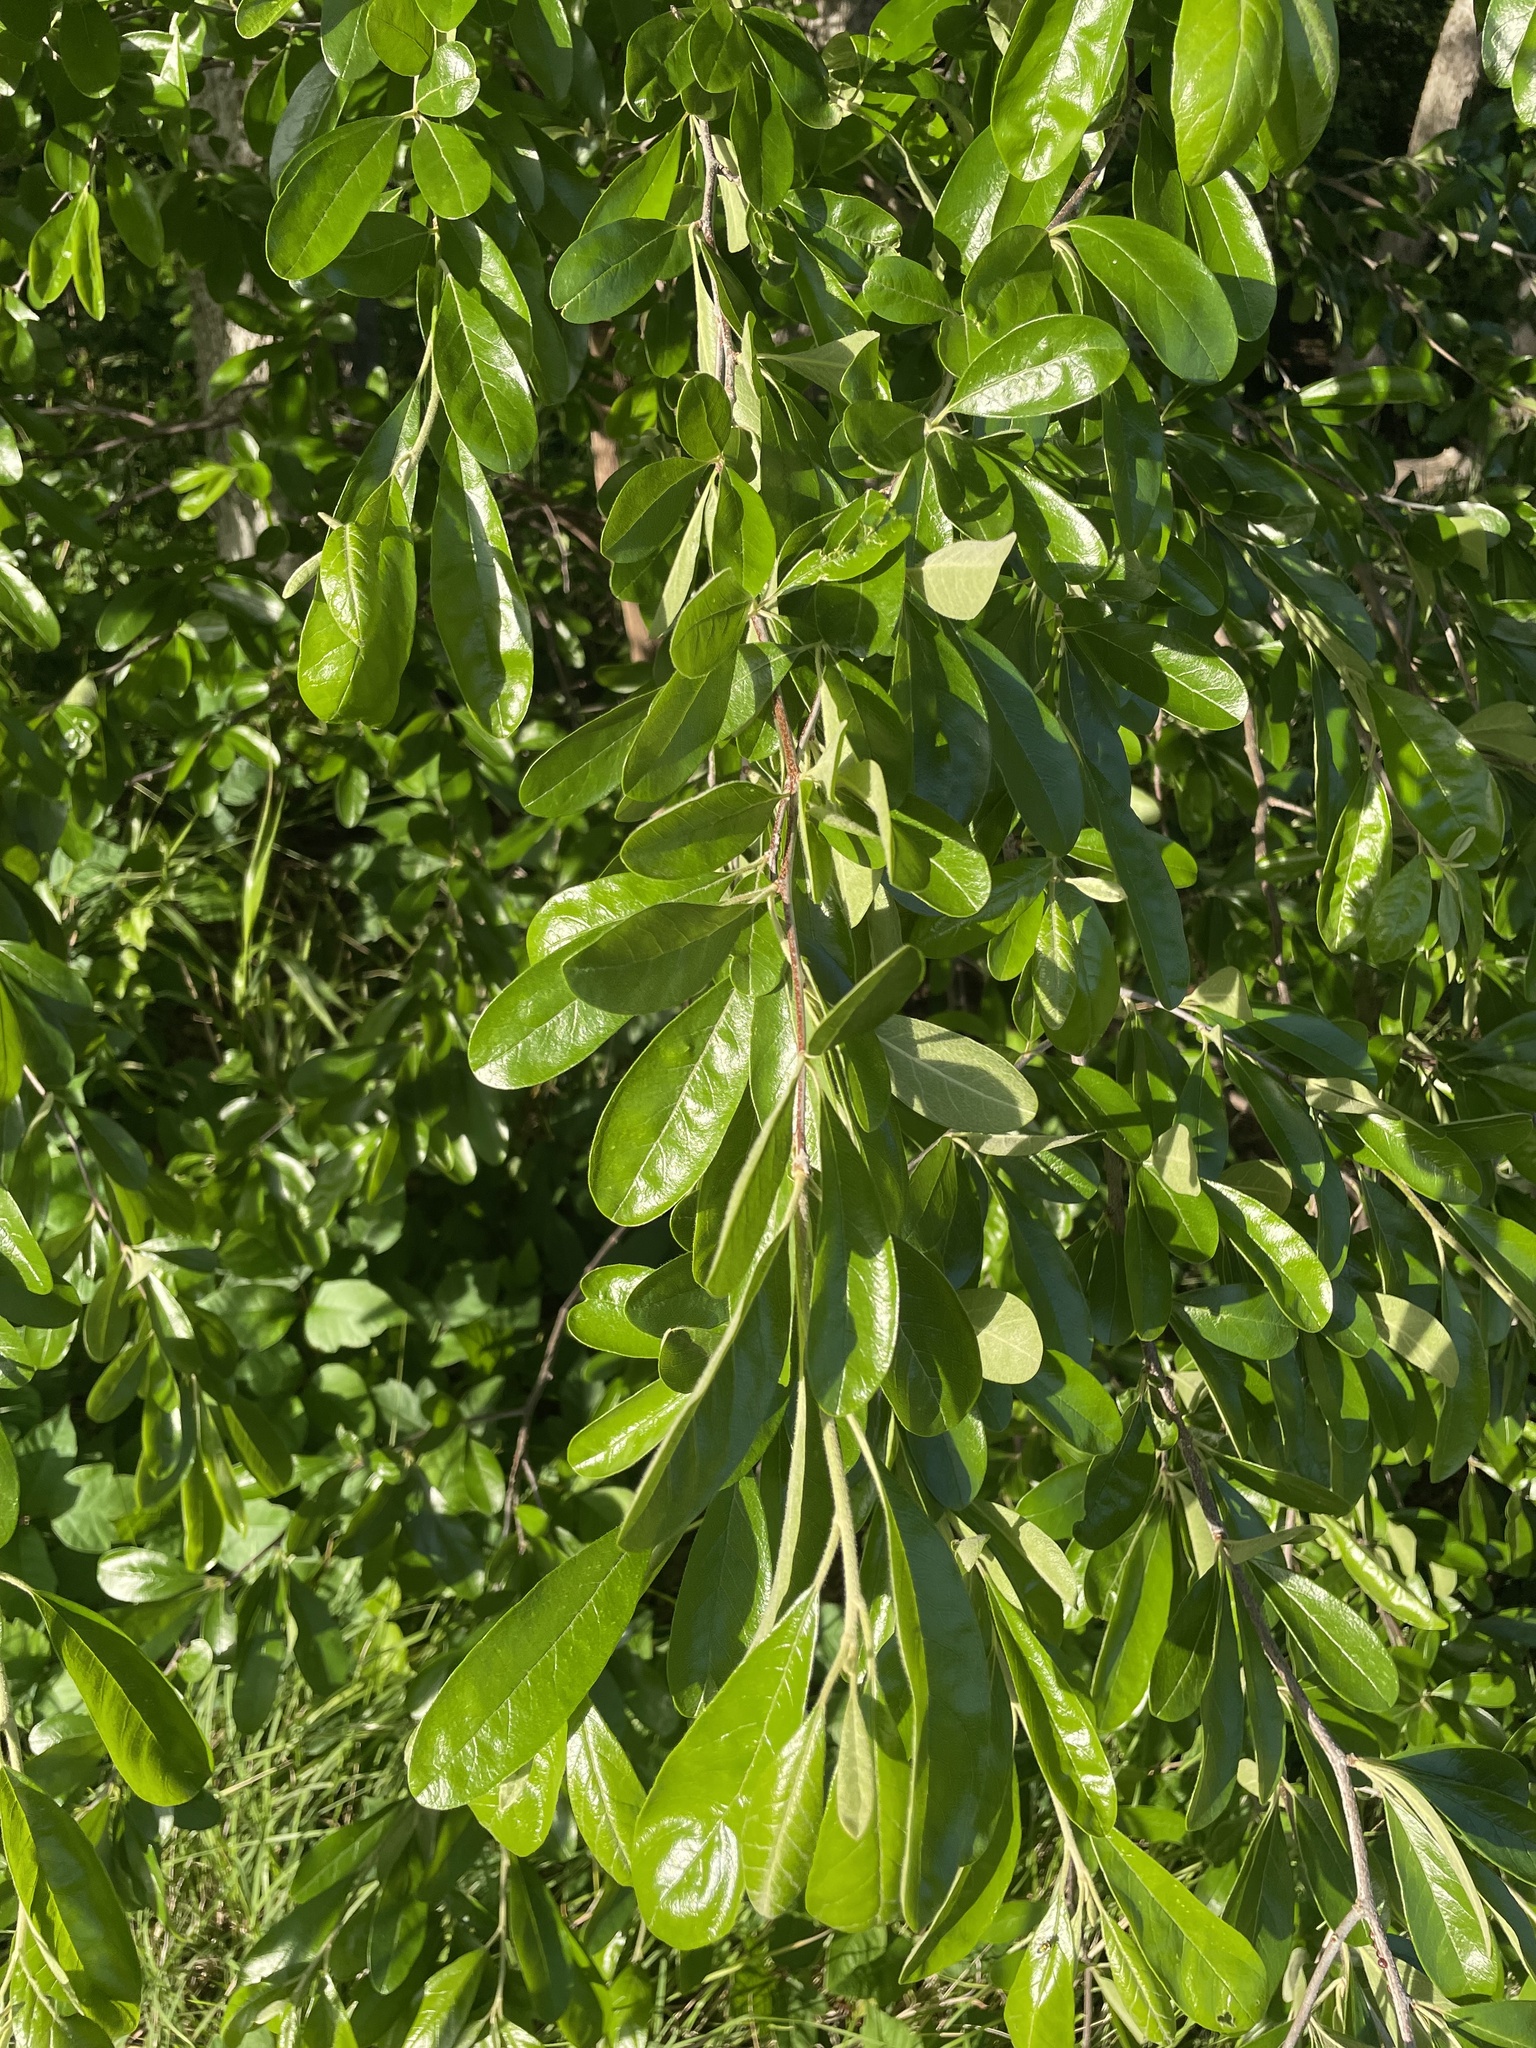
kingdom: Plantae
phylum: Tracheophyta
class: Magnoliopsida
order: Ericales
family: Sapotaceae
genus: Sideroxylon
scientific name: Sideroxylon lanuginosum
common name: Chittamwood
